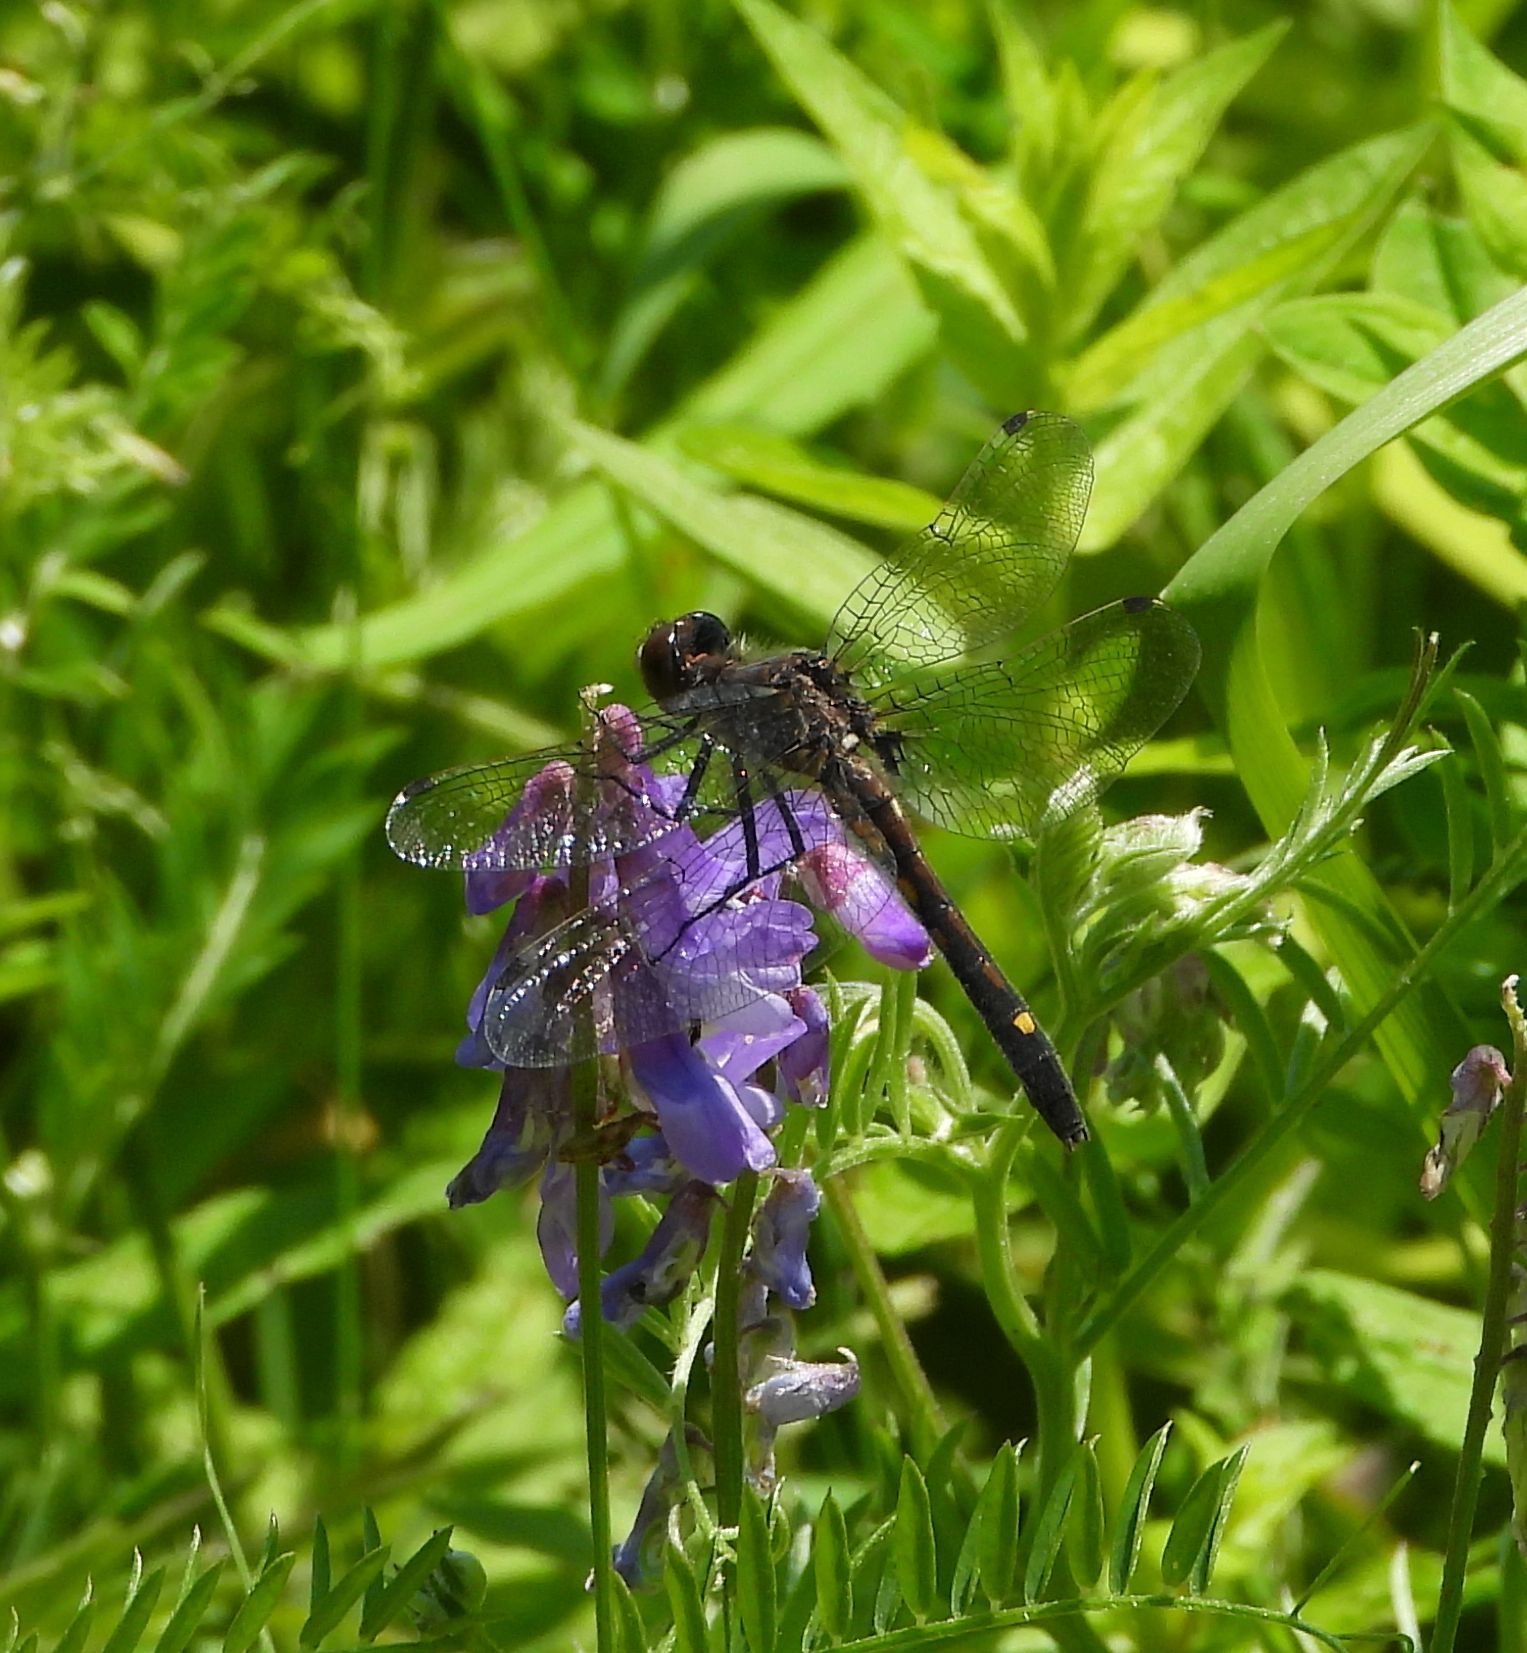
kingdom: Animalia
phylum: Arthropoda
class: Insecta
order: Odonata
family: Libellulidae
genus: Leucorrhinia
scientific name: Leucorrhinia intacta
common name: Dot-tailed whiteface
